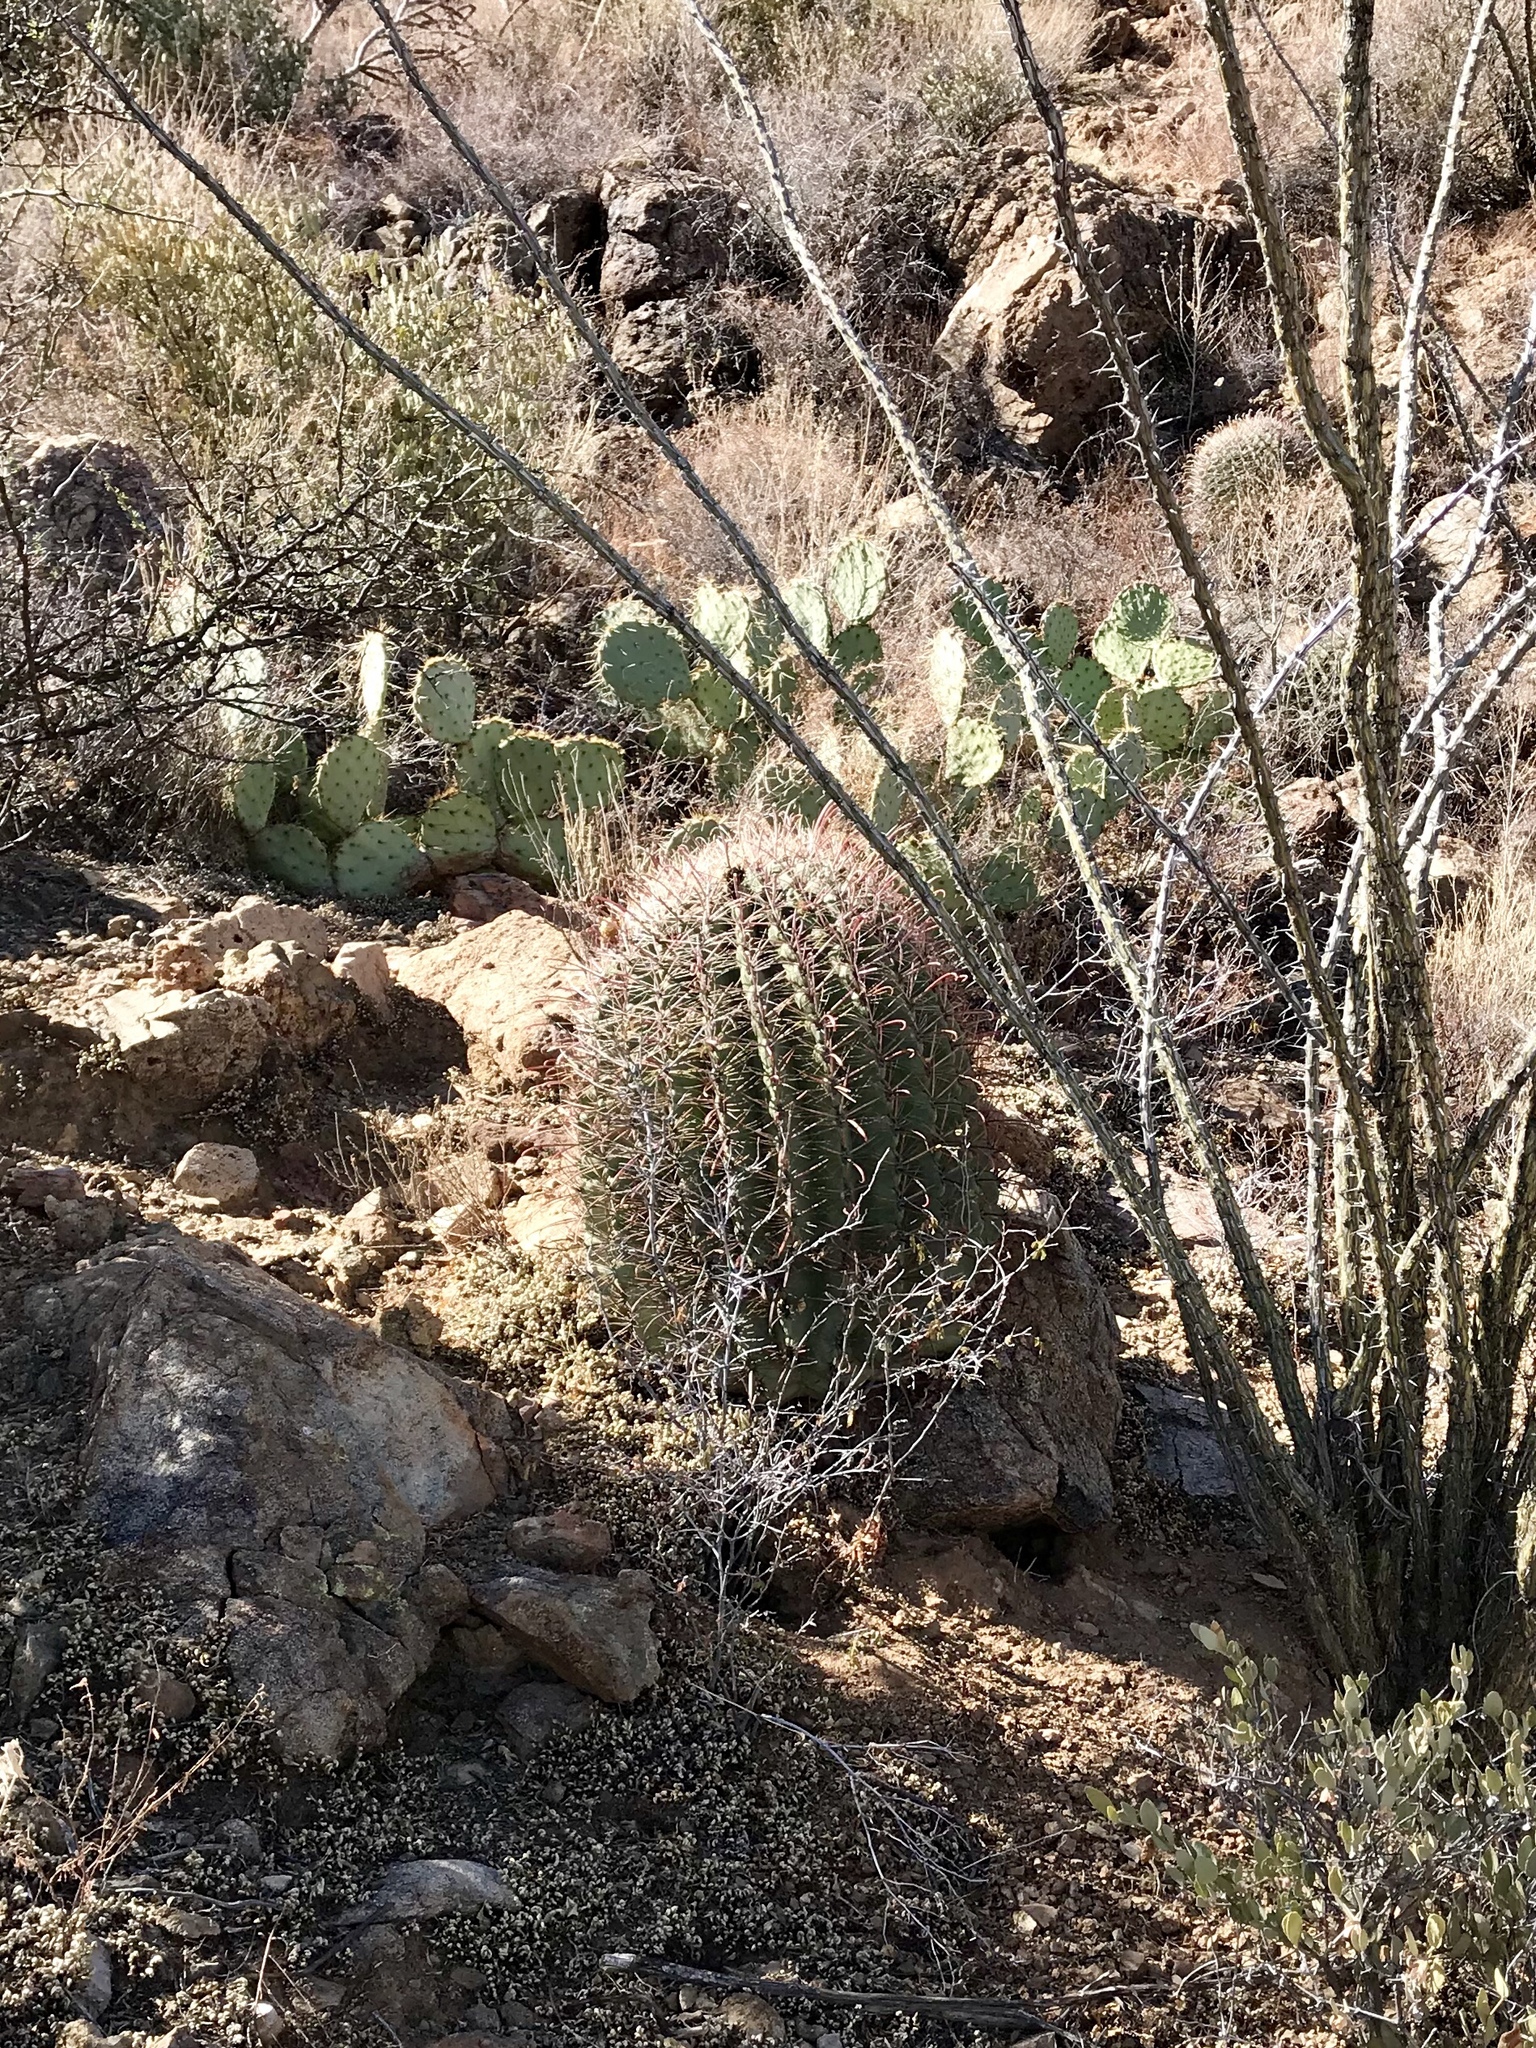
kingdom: Plantae
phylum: Tracheophyta
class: Magnoliopsida
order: Caryophyllales
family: Cactaceae
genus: Ferocactus
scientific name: Ferocactus wislizeni
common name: Candy barrel cactus
